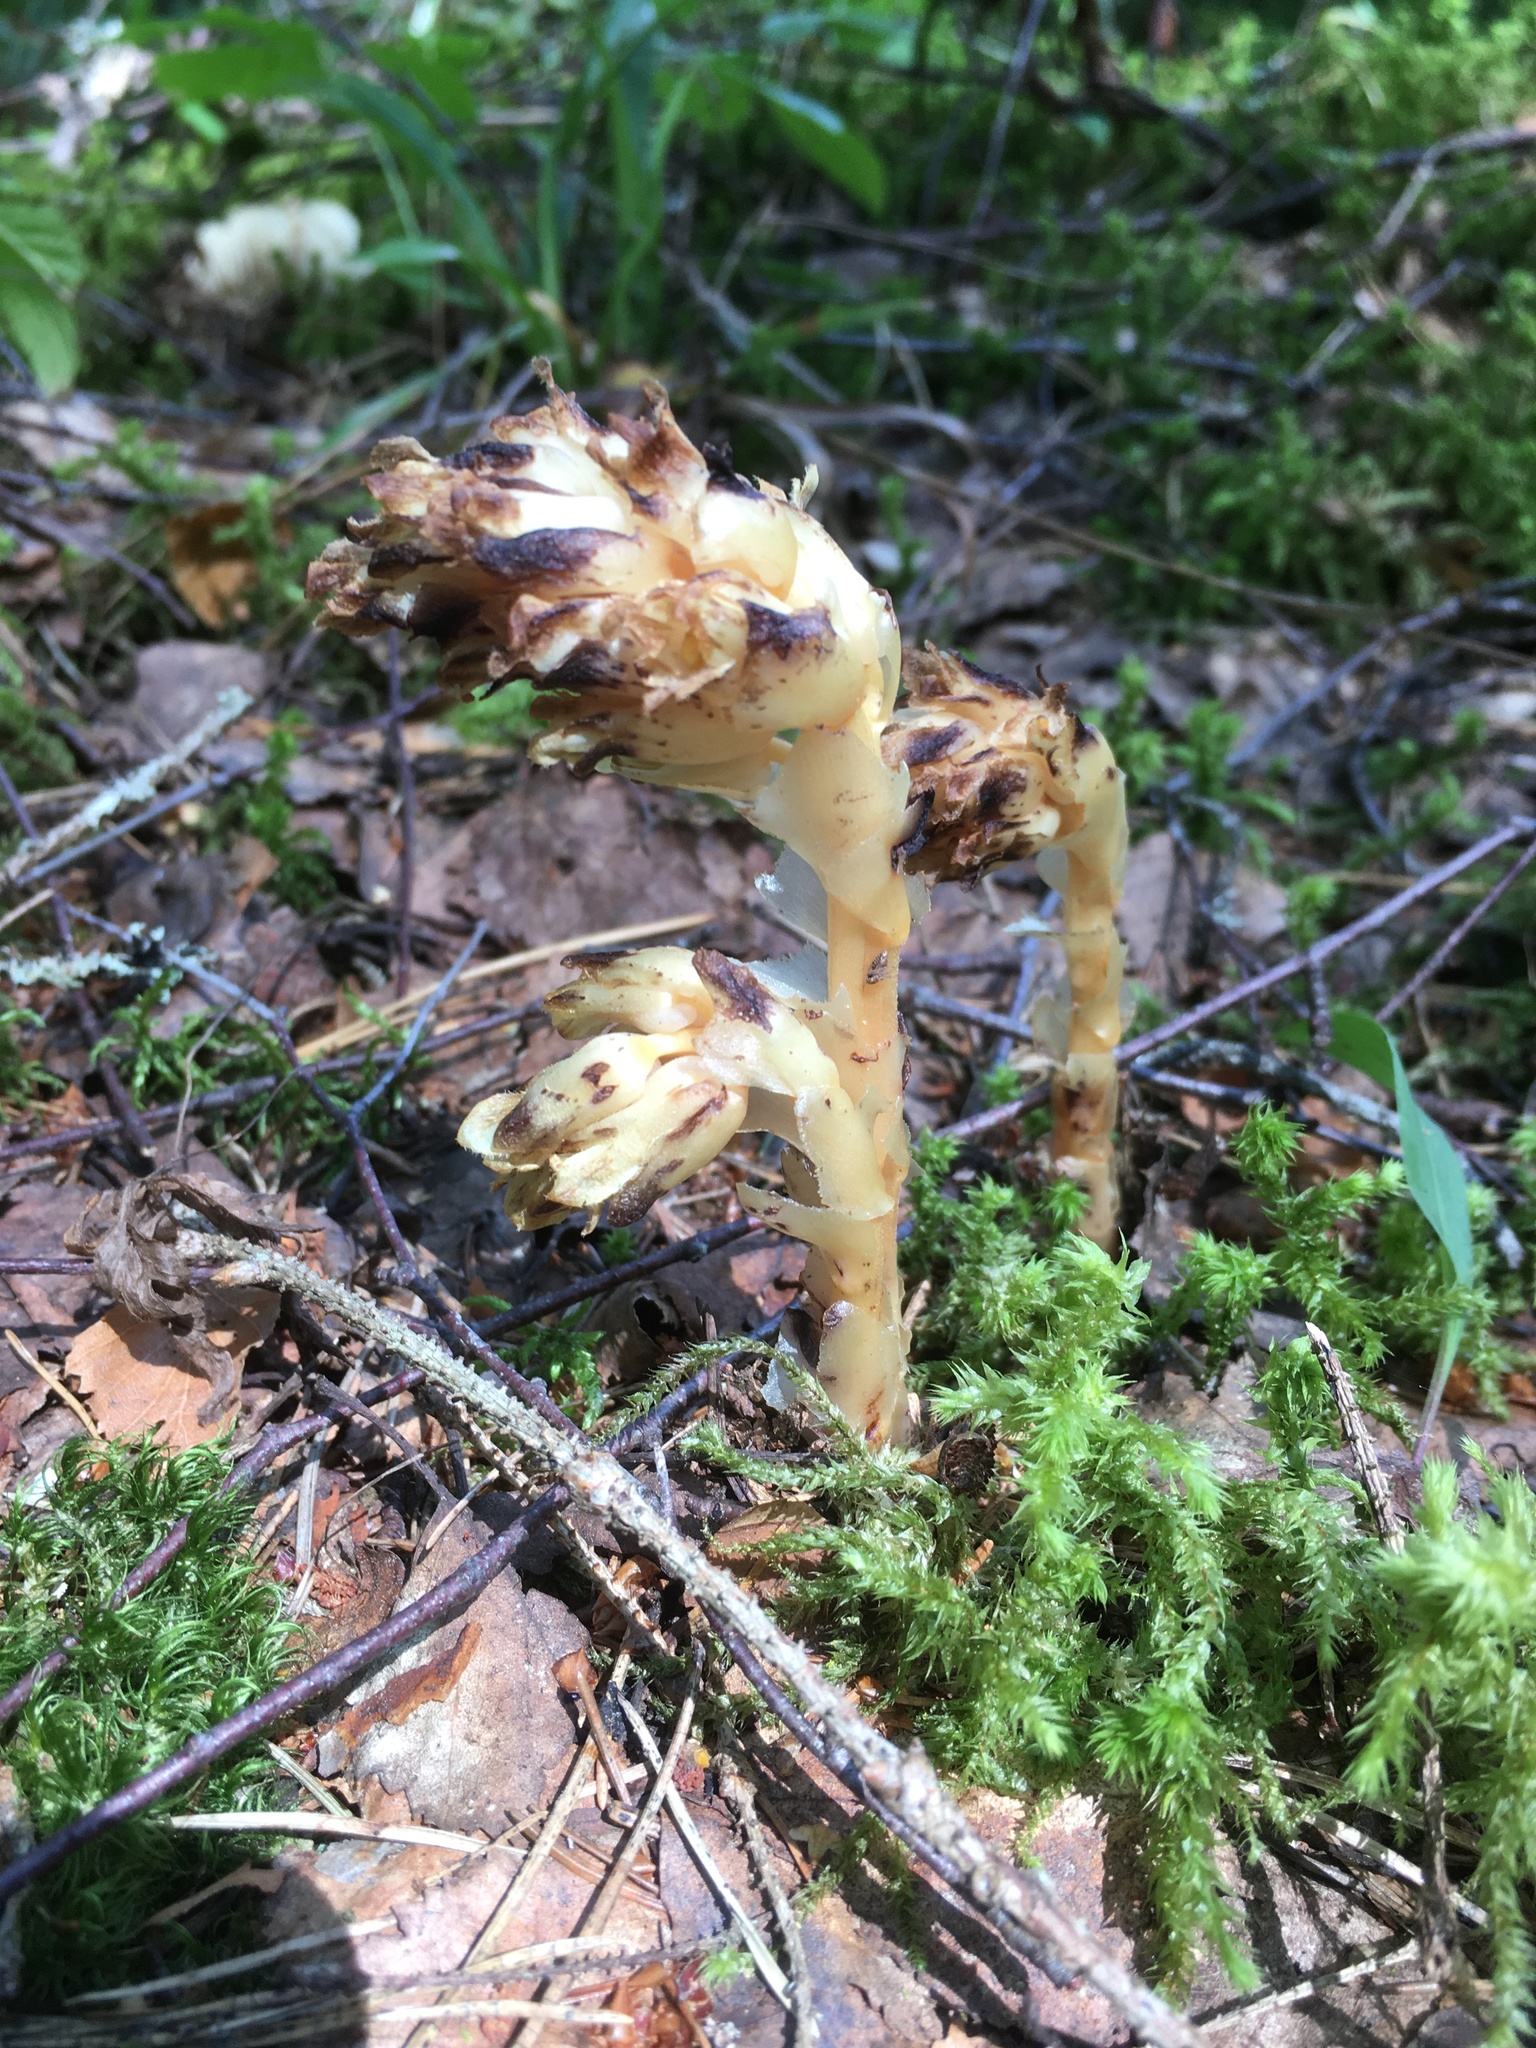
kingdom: Plantae
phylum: Tracheophyta
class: Magnoliopsida
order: Ericales
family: Ericaceae
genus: Hypopitys
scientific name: Hypopitys monotropa
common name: Yellow bird's-nest
